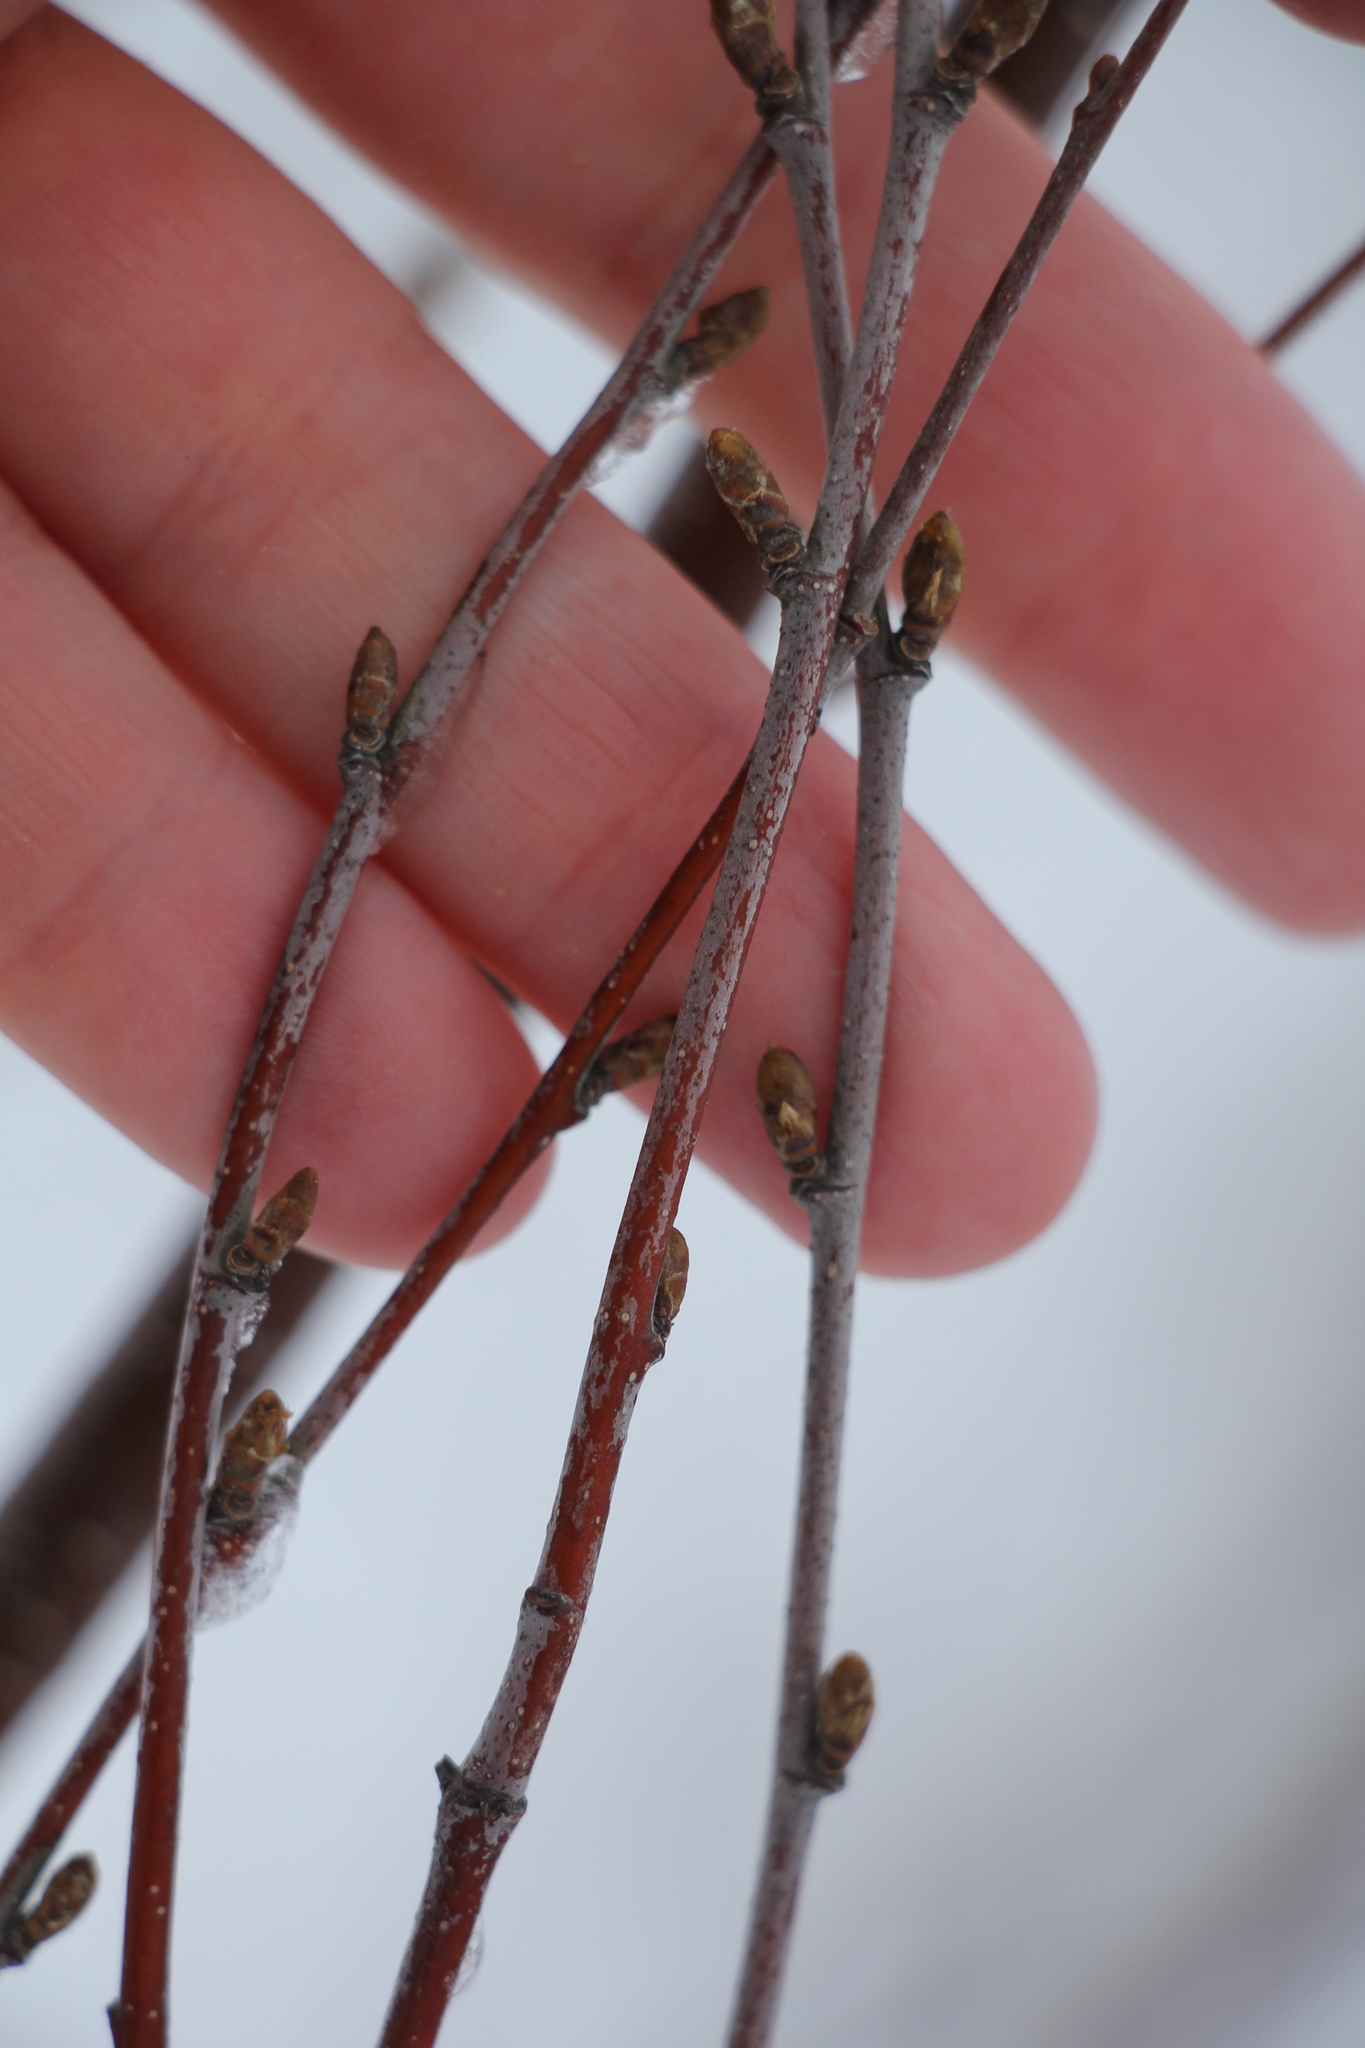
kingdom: Plantae
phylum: Tracheophyta
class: Magnoliopsida
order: Fagales
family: Betulaceae
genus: Betula
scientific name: Betula pubescens
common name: Downy birch
